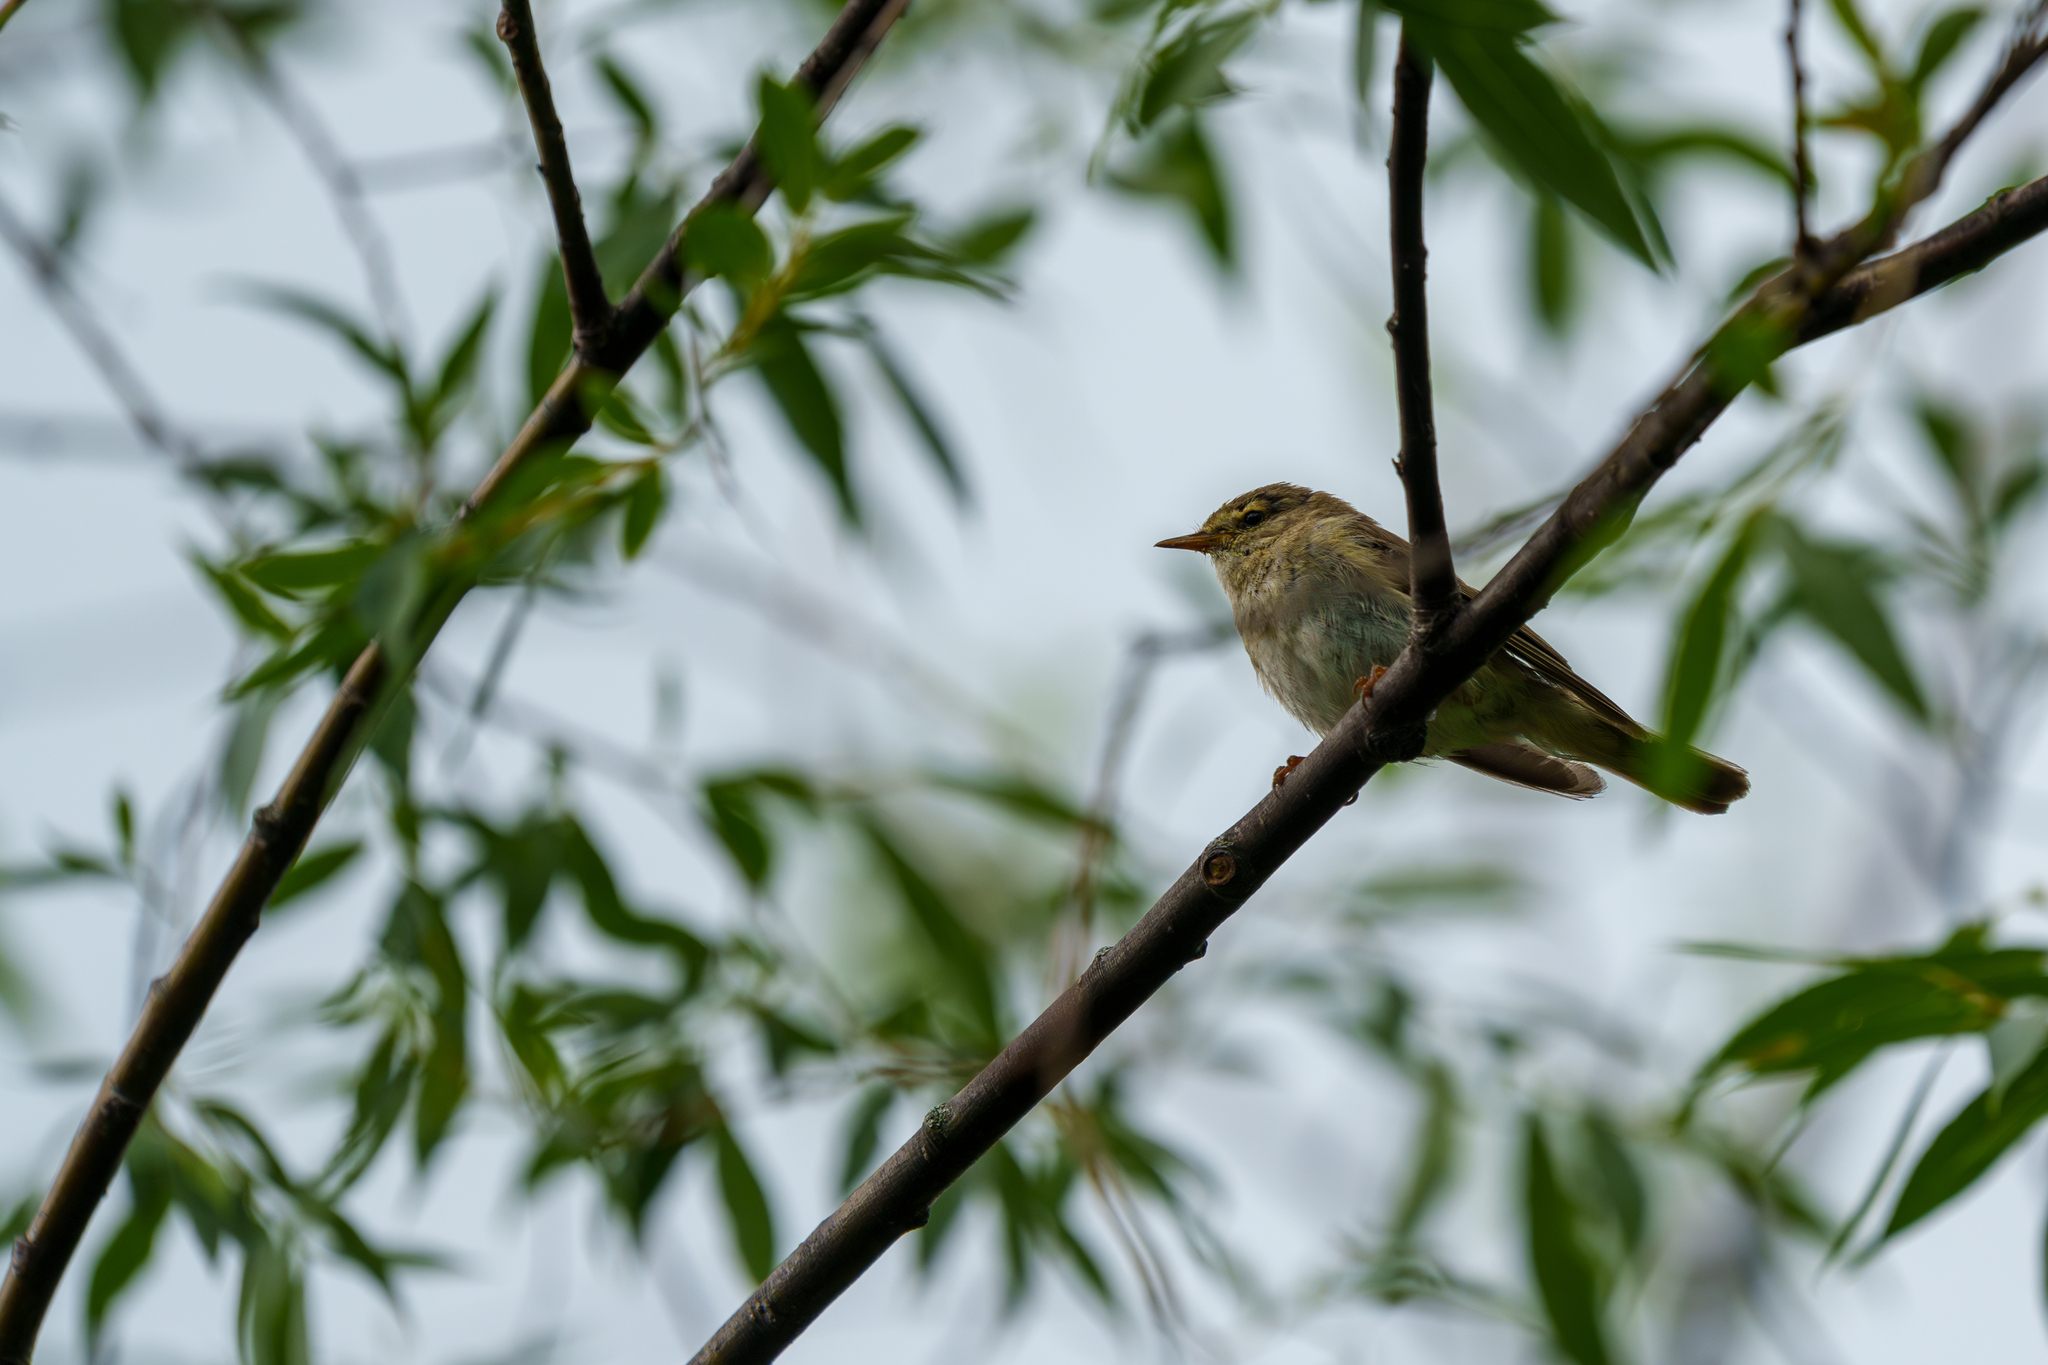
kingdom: Animalia
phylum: Chordata
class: Aves
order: Passeriformes
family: Phylloscopidae
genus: Phylloscopus
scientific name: Phylloscopus trochilus
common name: Willow warbler
